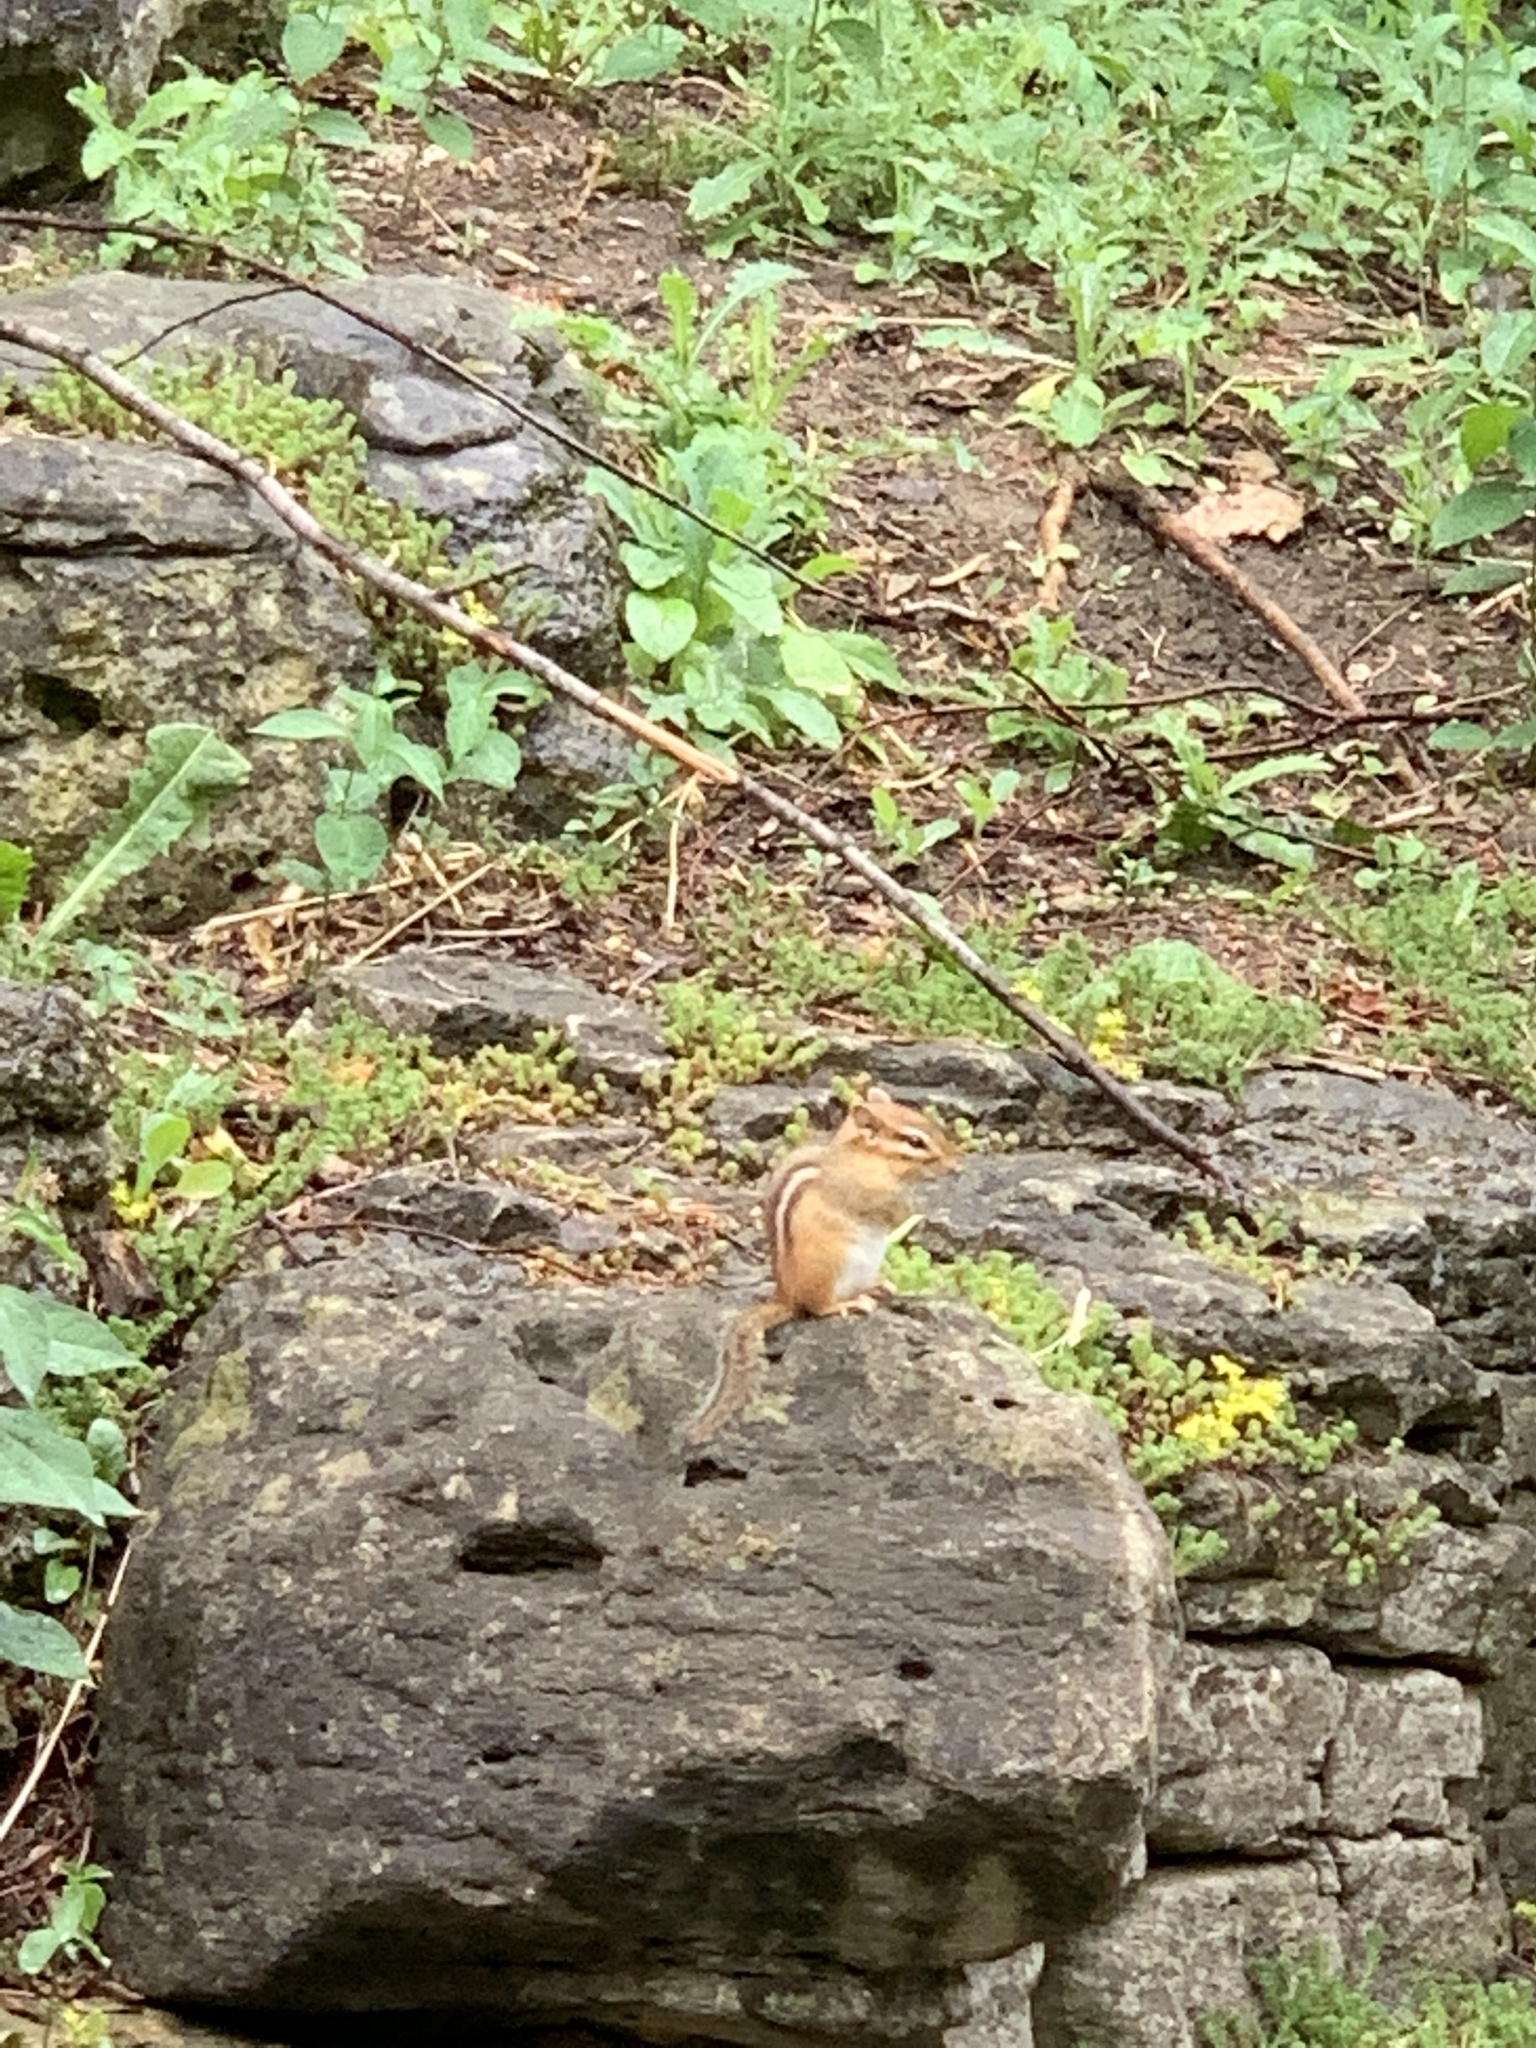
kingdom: Animalia
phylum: Chordata
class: Mammalia
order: Rodentia
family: Sciuridae
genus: Tamias
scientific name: Tamias striatus
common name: Eastern chipmunk
